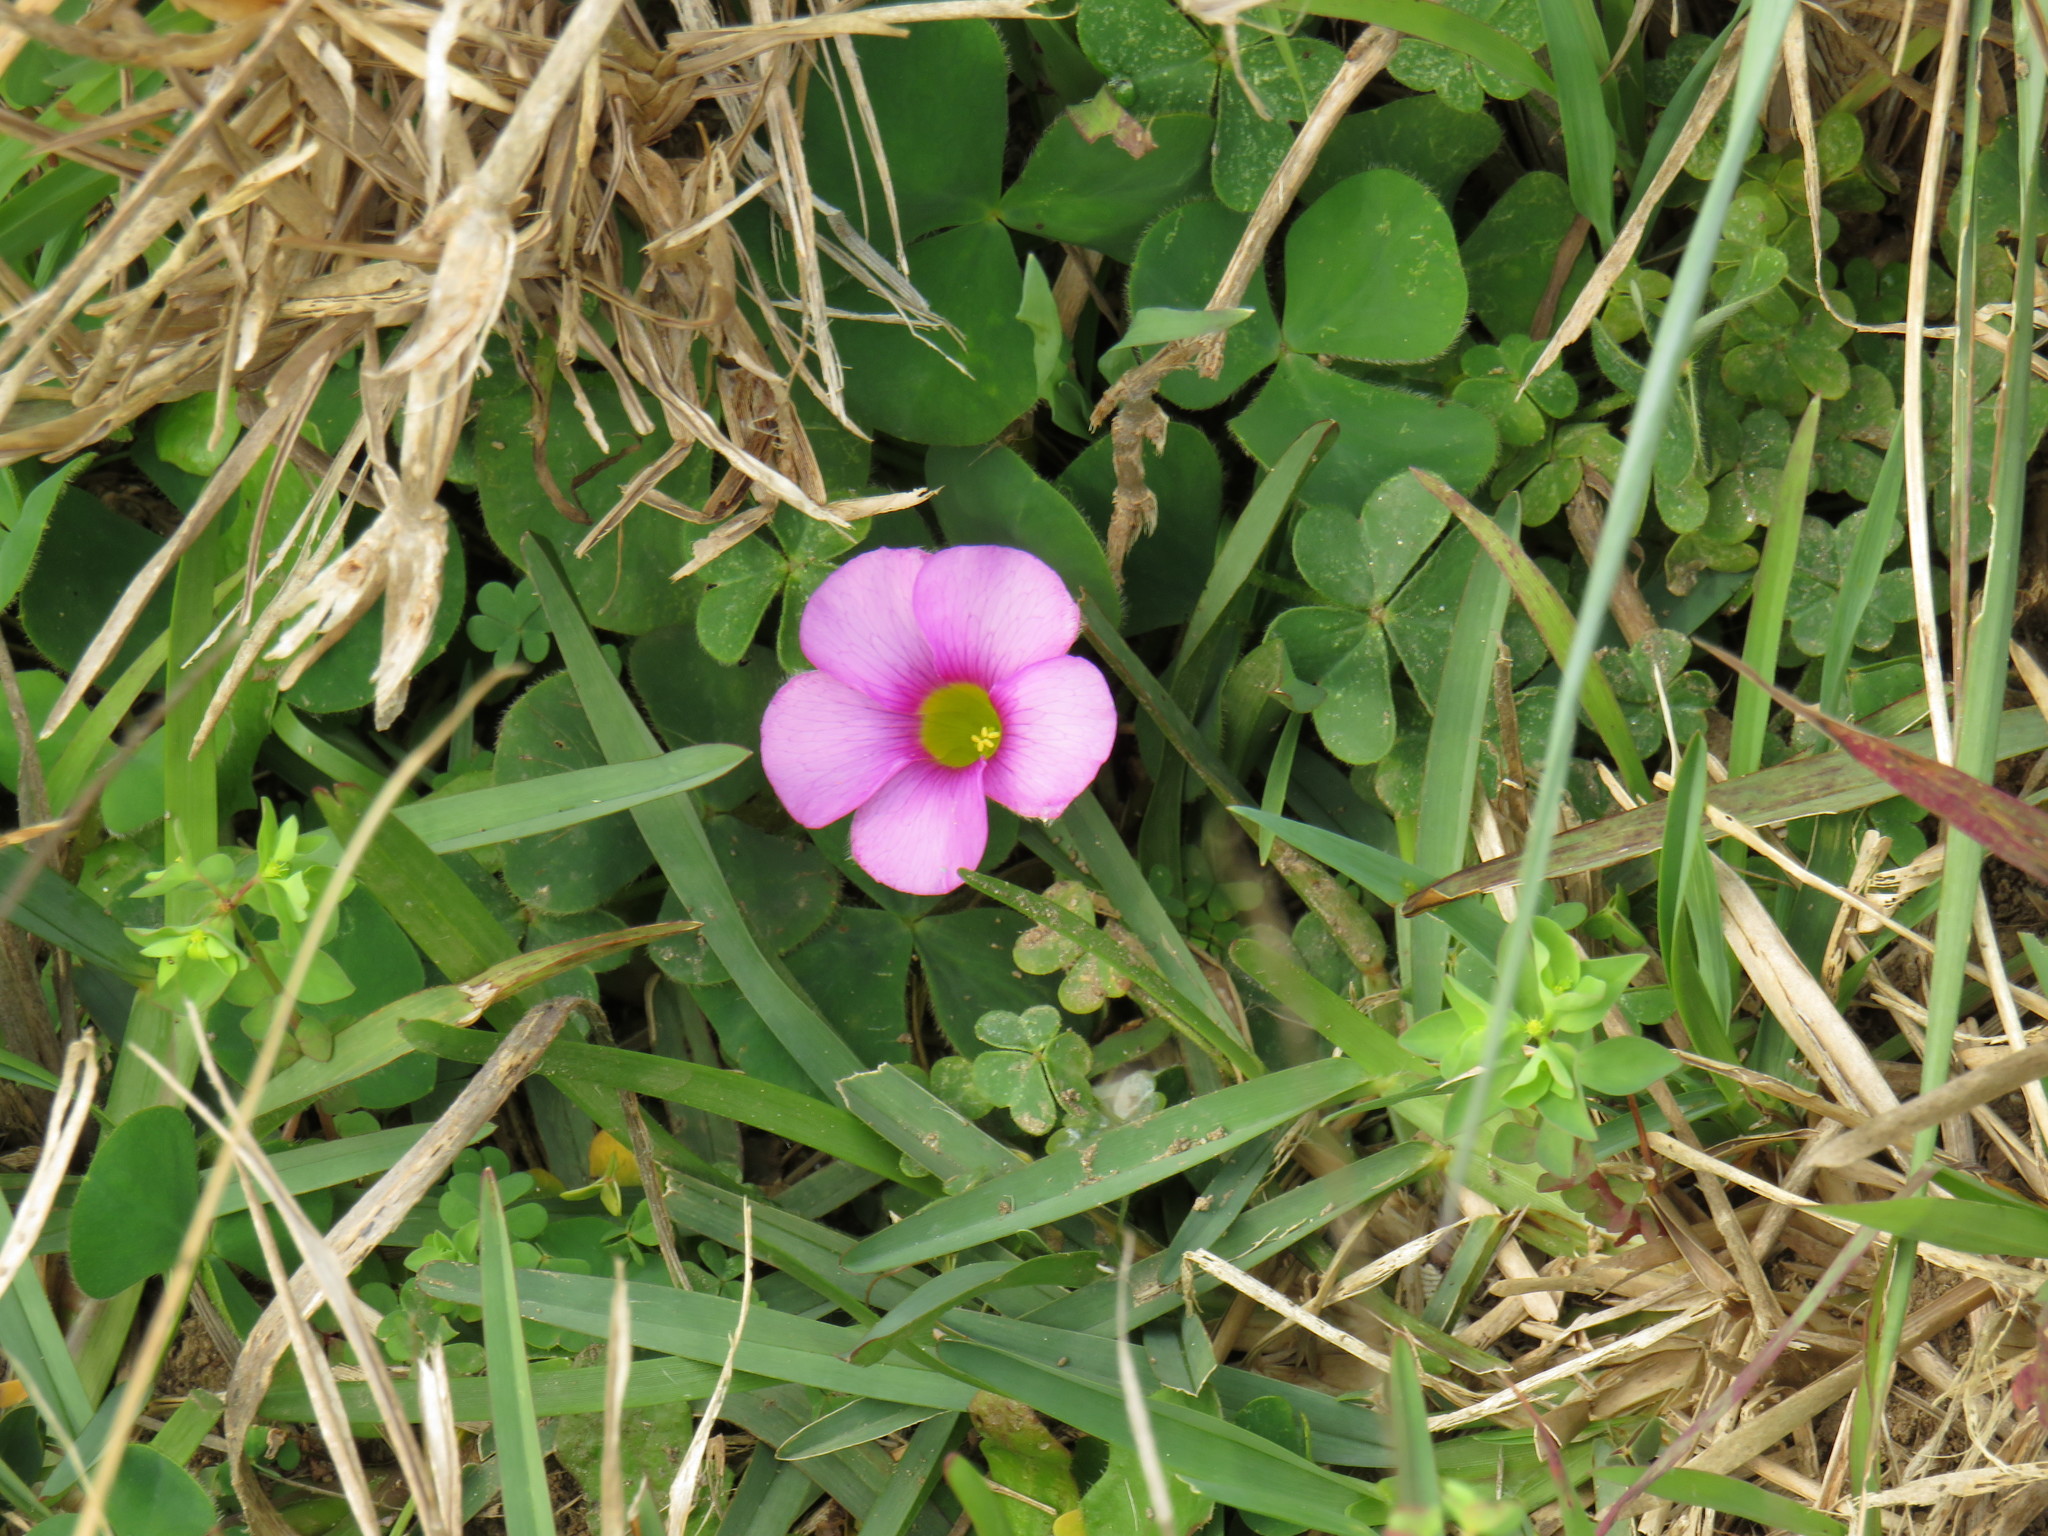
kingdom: Plantae
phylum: Tracheophyta
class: Magnoliopsida
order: Oxalidales
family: Oxalidaceae
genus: Oxalis
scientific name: Oxalis purpurea
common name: Purple woodsorrel
